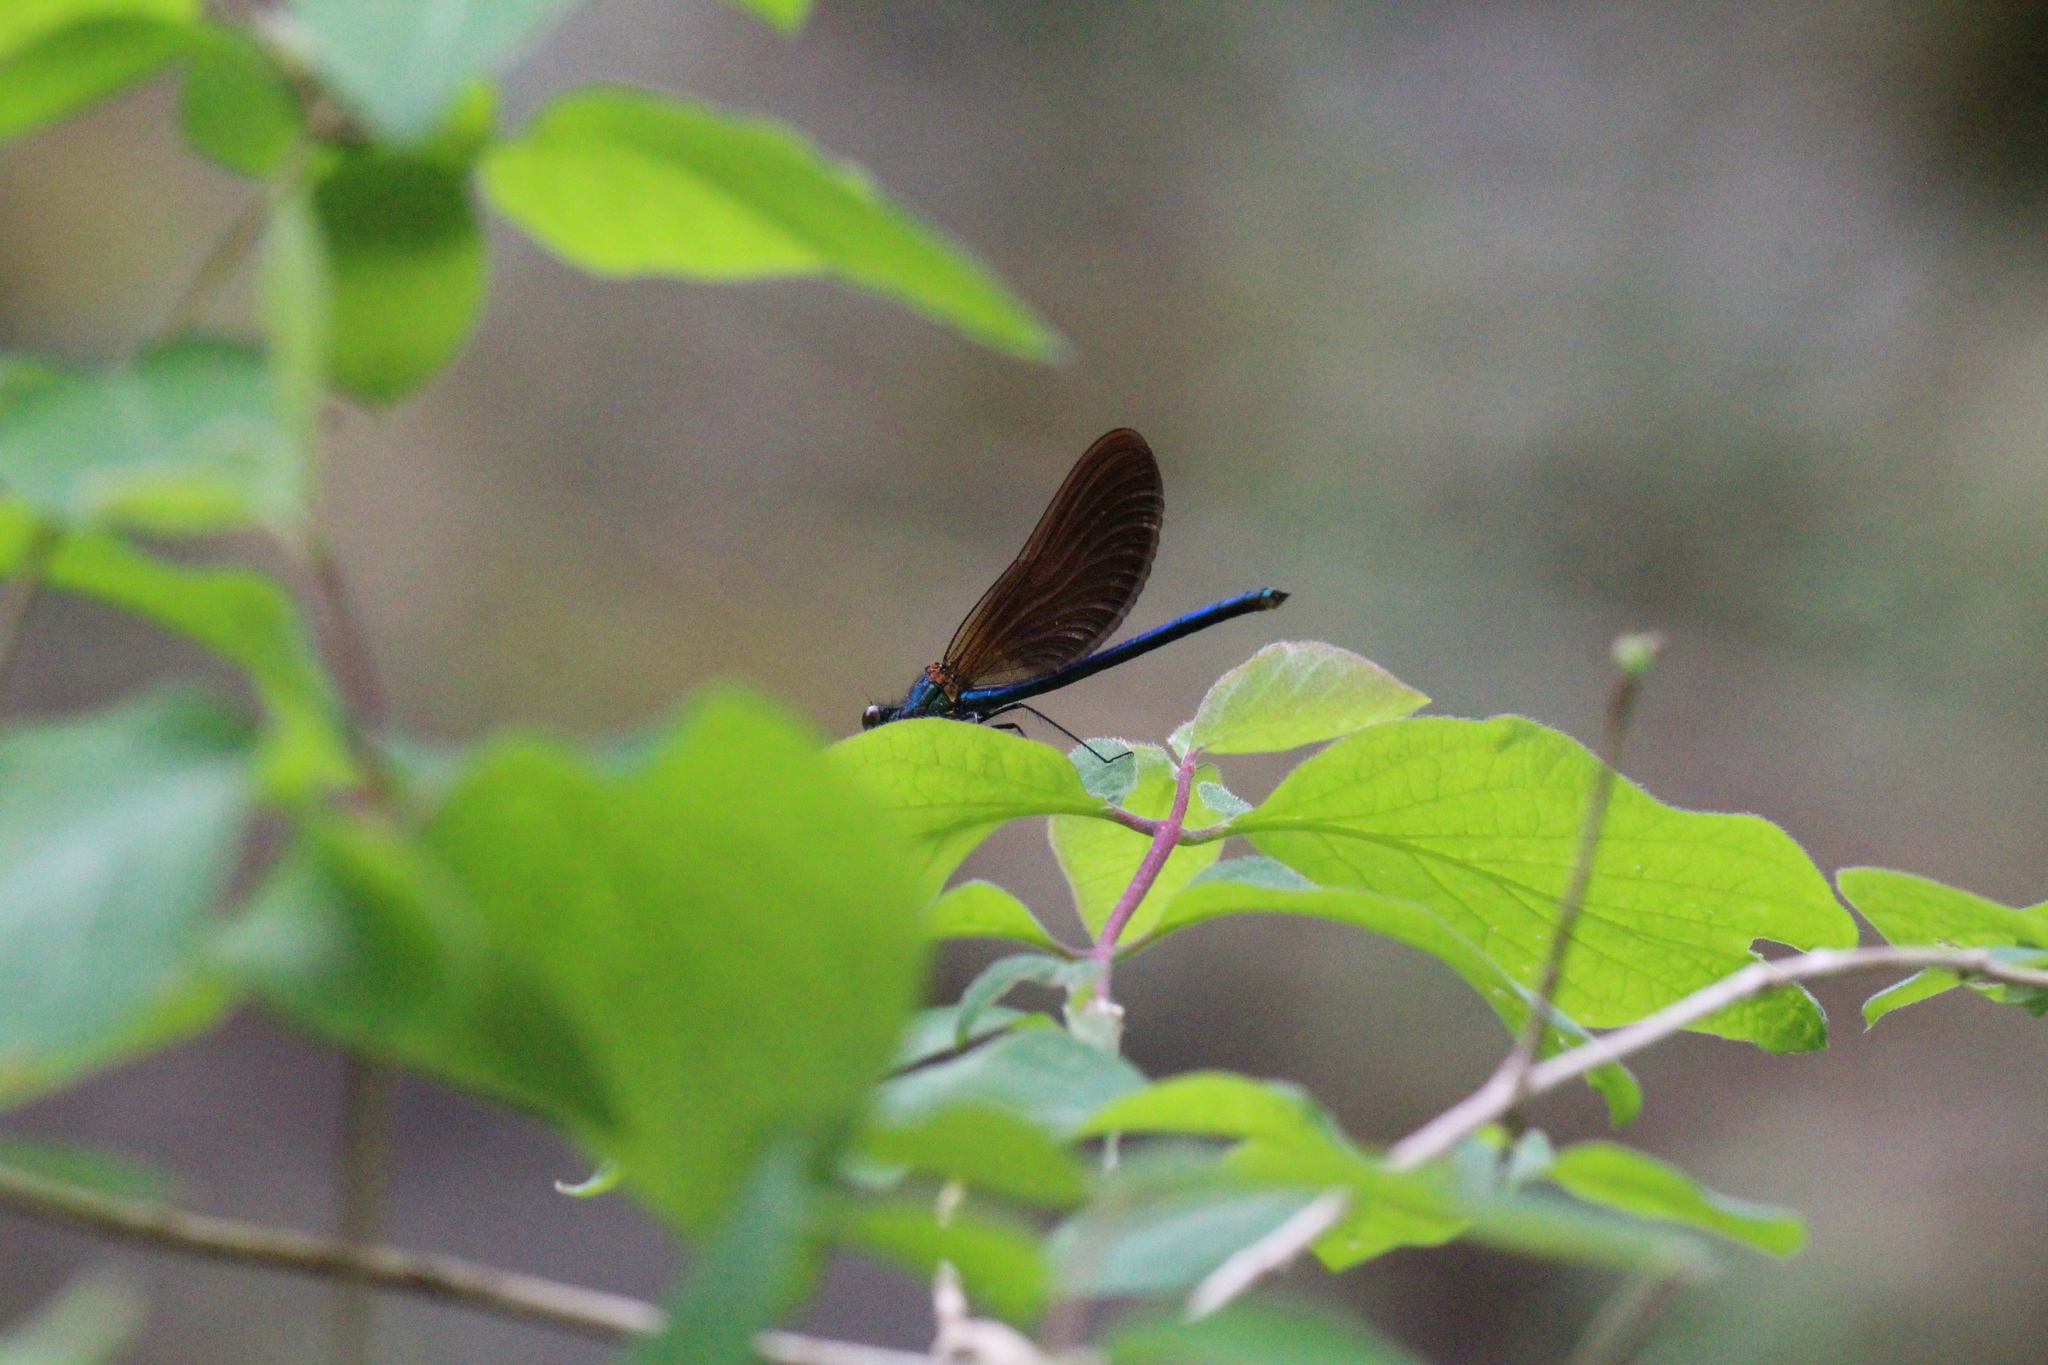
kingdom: Animalia
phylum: Arthropoda
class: Insecta
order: Odonata
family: Calopterygidae
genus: Calopteryx
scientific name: Calopteryx virgo
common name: Beautiful demoiselle
